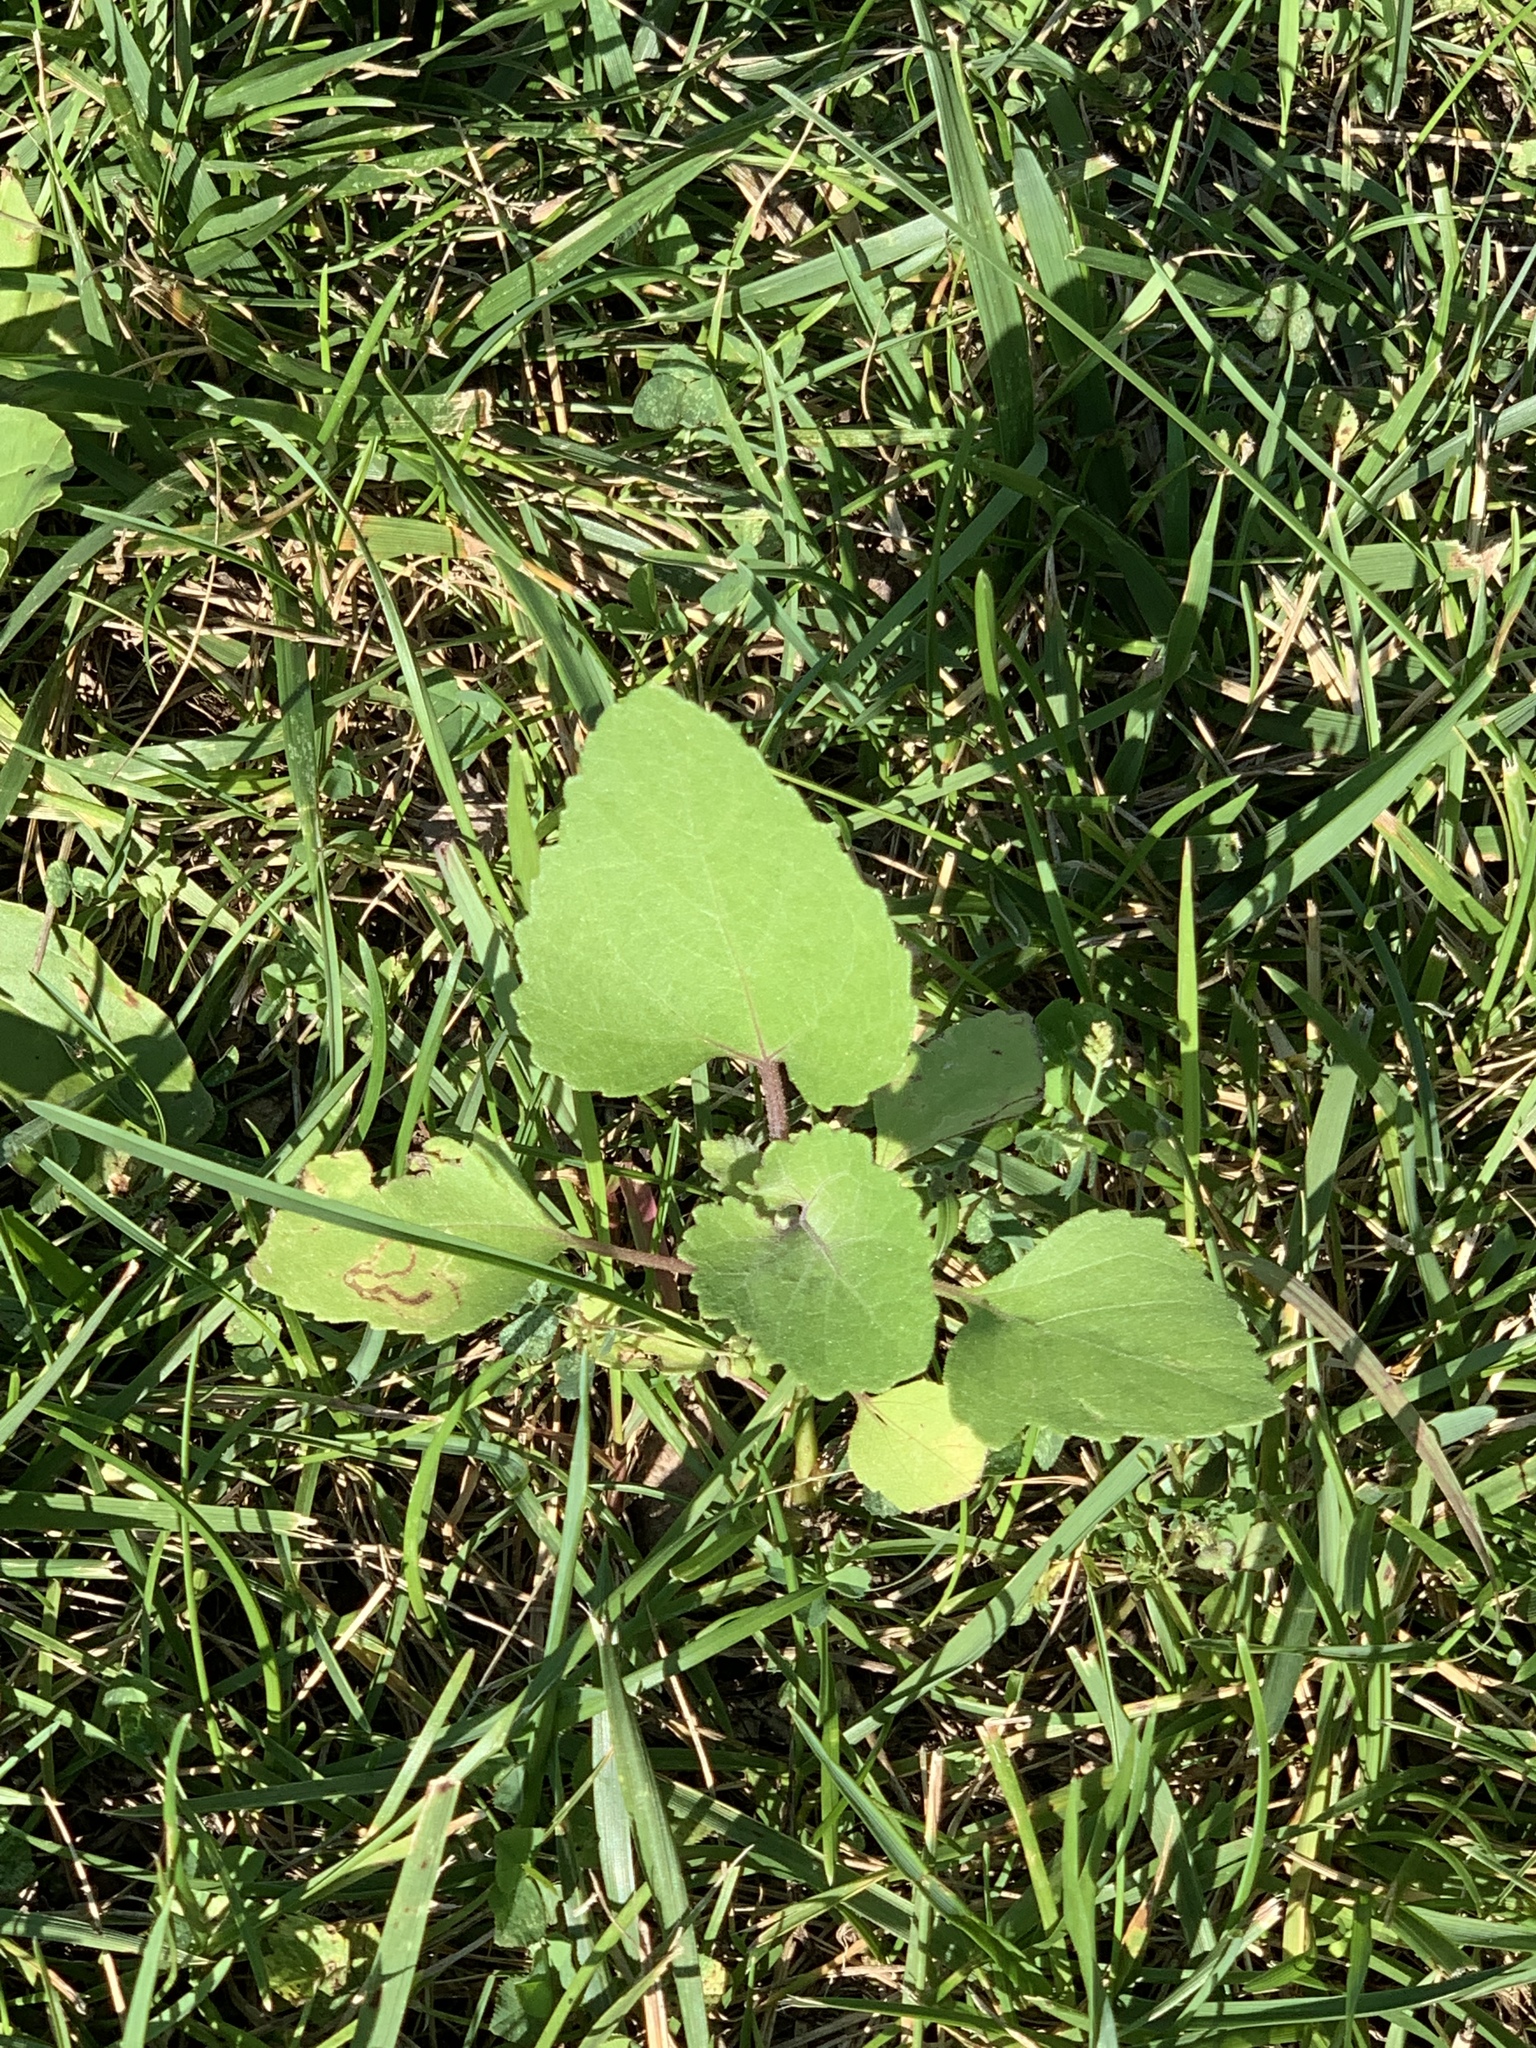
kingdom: Plantae
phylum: Tracheophyta
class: Magnoliopsida
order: Asterales
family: Asteraceae
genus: Xanthium
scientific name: Xanthium strumarium
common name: Rough cocklebur
